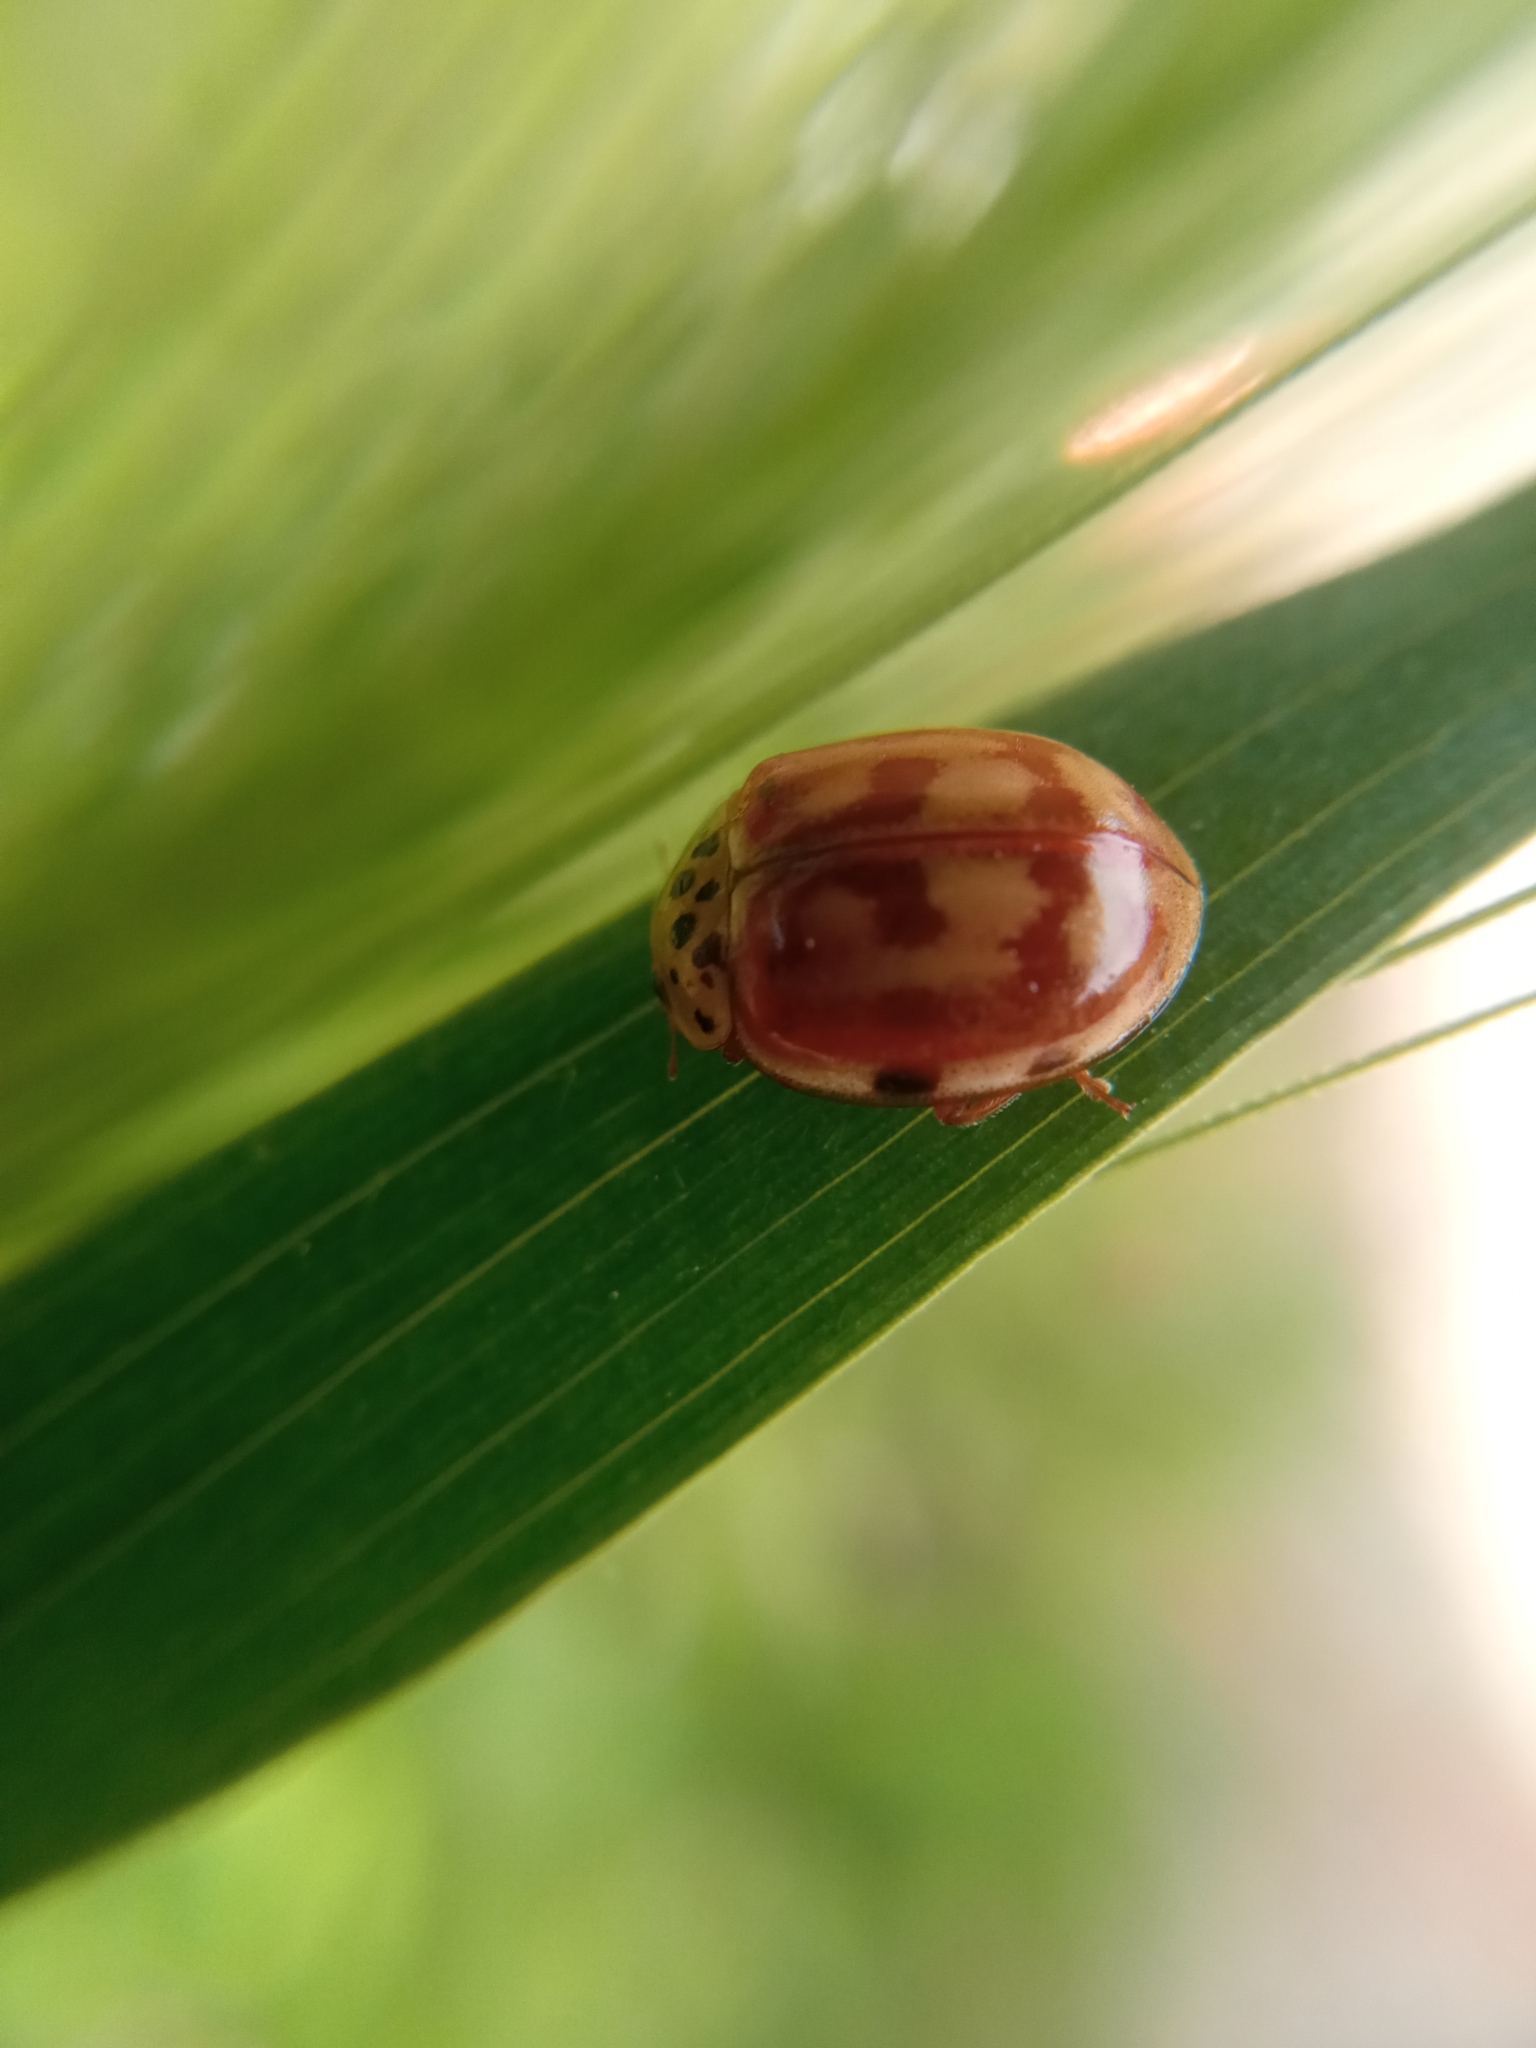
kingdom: Animalia
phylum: Arthropoda
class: Insecta
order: Coleoptera
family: Coccinellidae
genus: Harmonia
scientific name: Harmonia quadripunctata
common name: Cream-streaked ladybird
